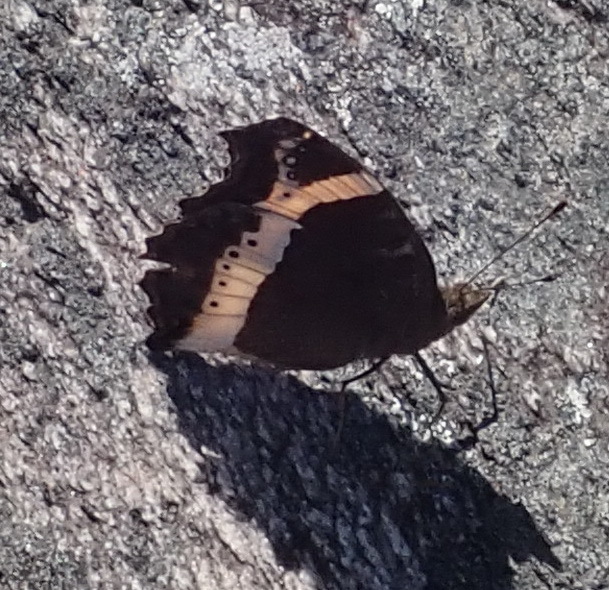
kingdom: Animalia
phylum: Arthropoda
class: Insecta
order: Lepidoptera
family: Nymphalidae
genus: Junonia
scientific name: Junonia archesia
